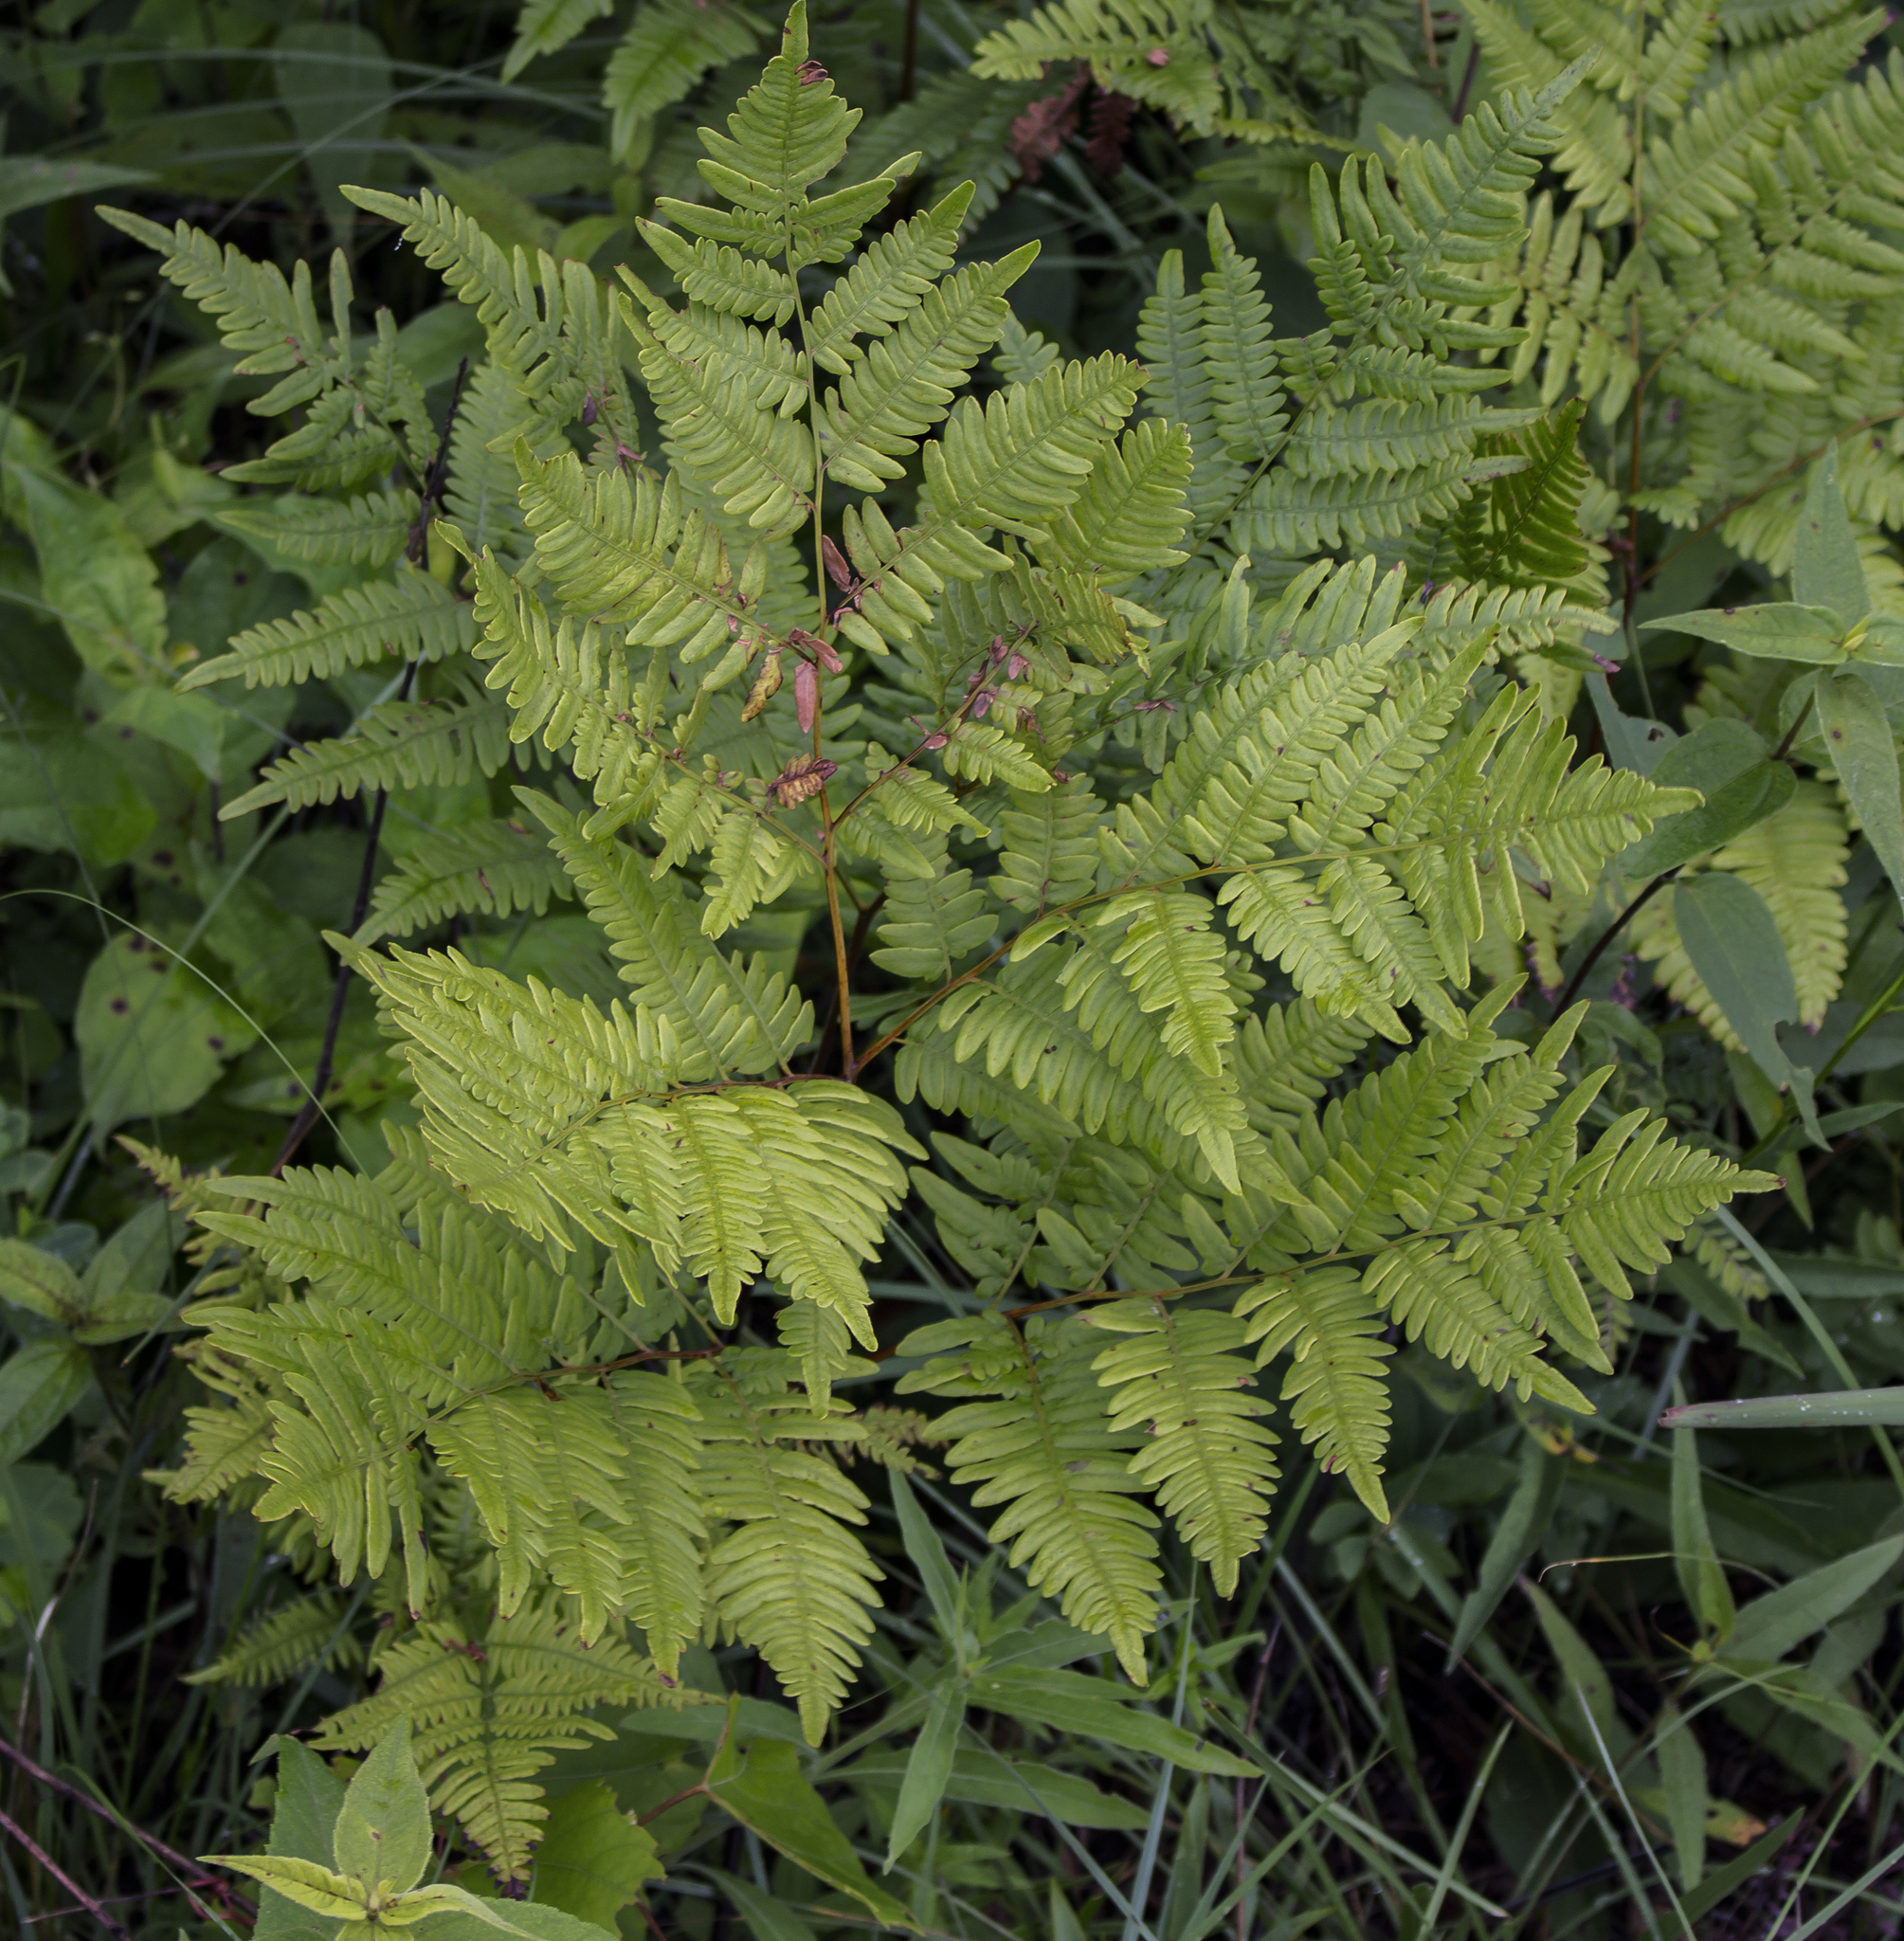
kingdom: Plantae
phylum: Tracheophyta
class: Polypodiopsida
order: Polypodiales
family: Dennstaedtiaceae
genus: Pteridium
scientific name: Pteridium aquilinum
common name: Bracken
